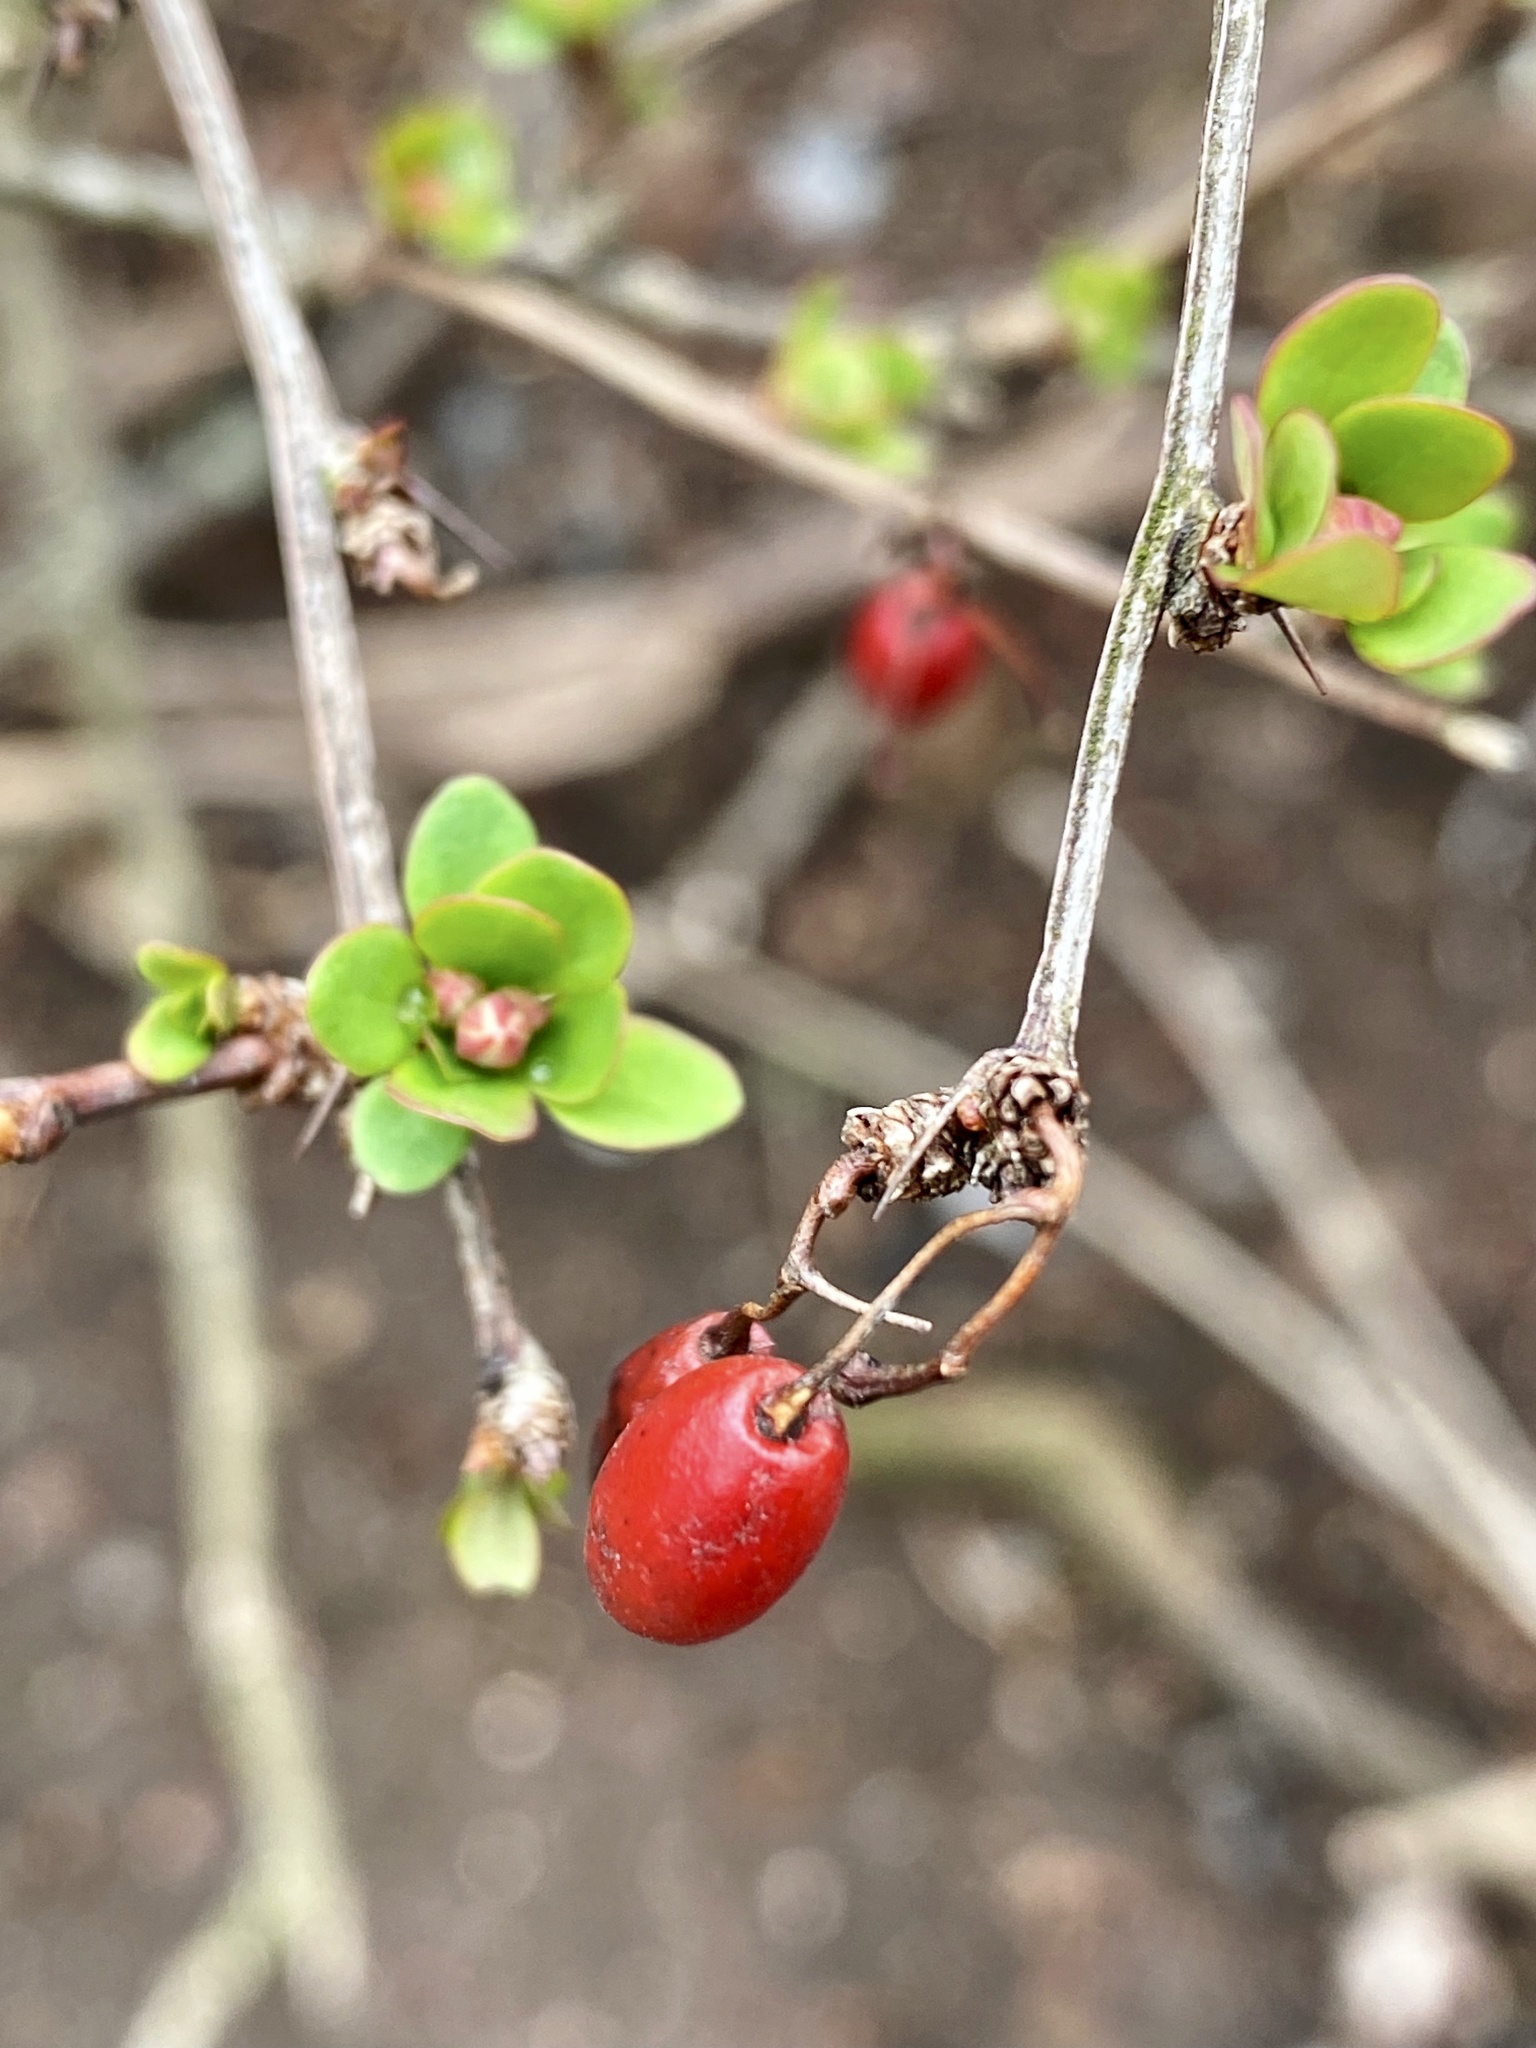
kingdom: Plantae
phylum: Tracheophyta
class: Magnoliopsida
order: Ranunculales
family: Berberidaceae
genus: Berberis
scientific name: Berberis thunbergii
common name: Japanese barberry
